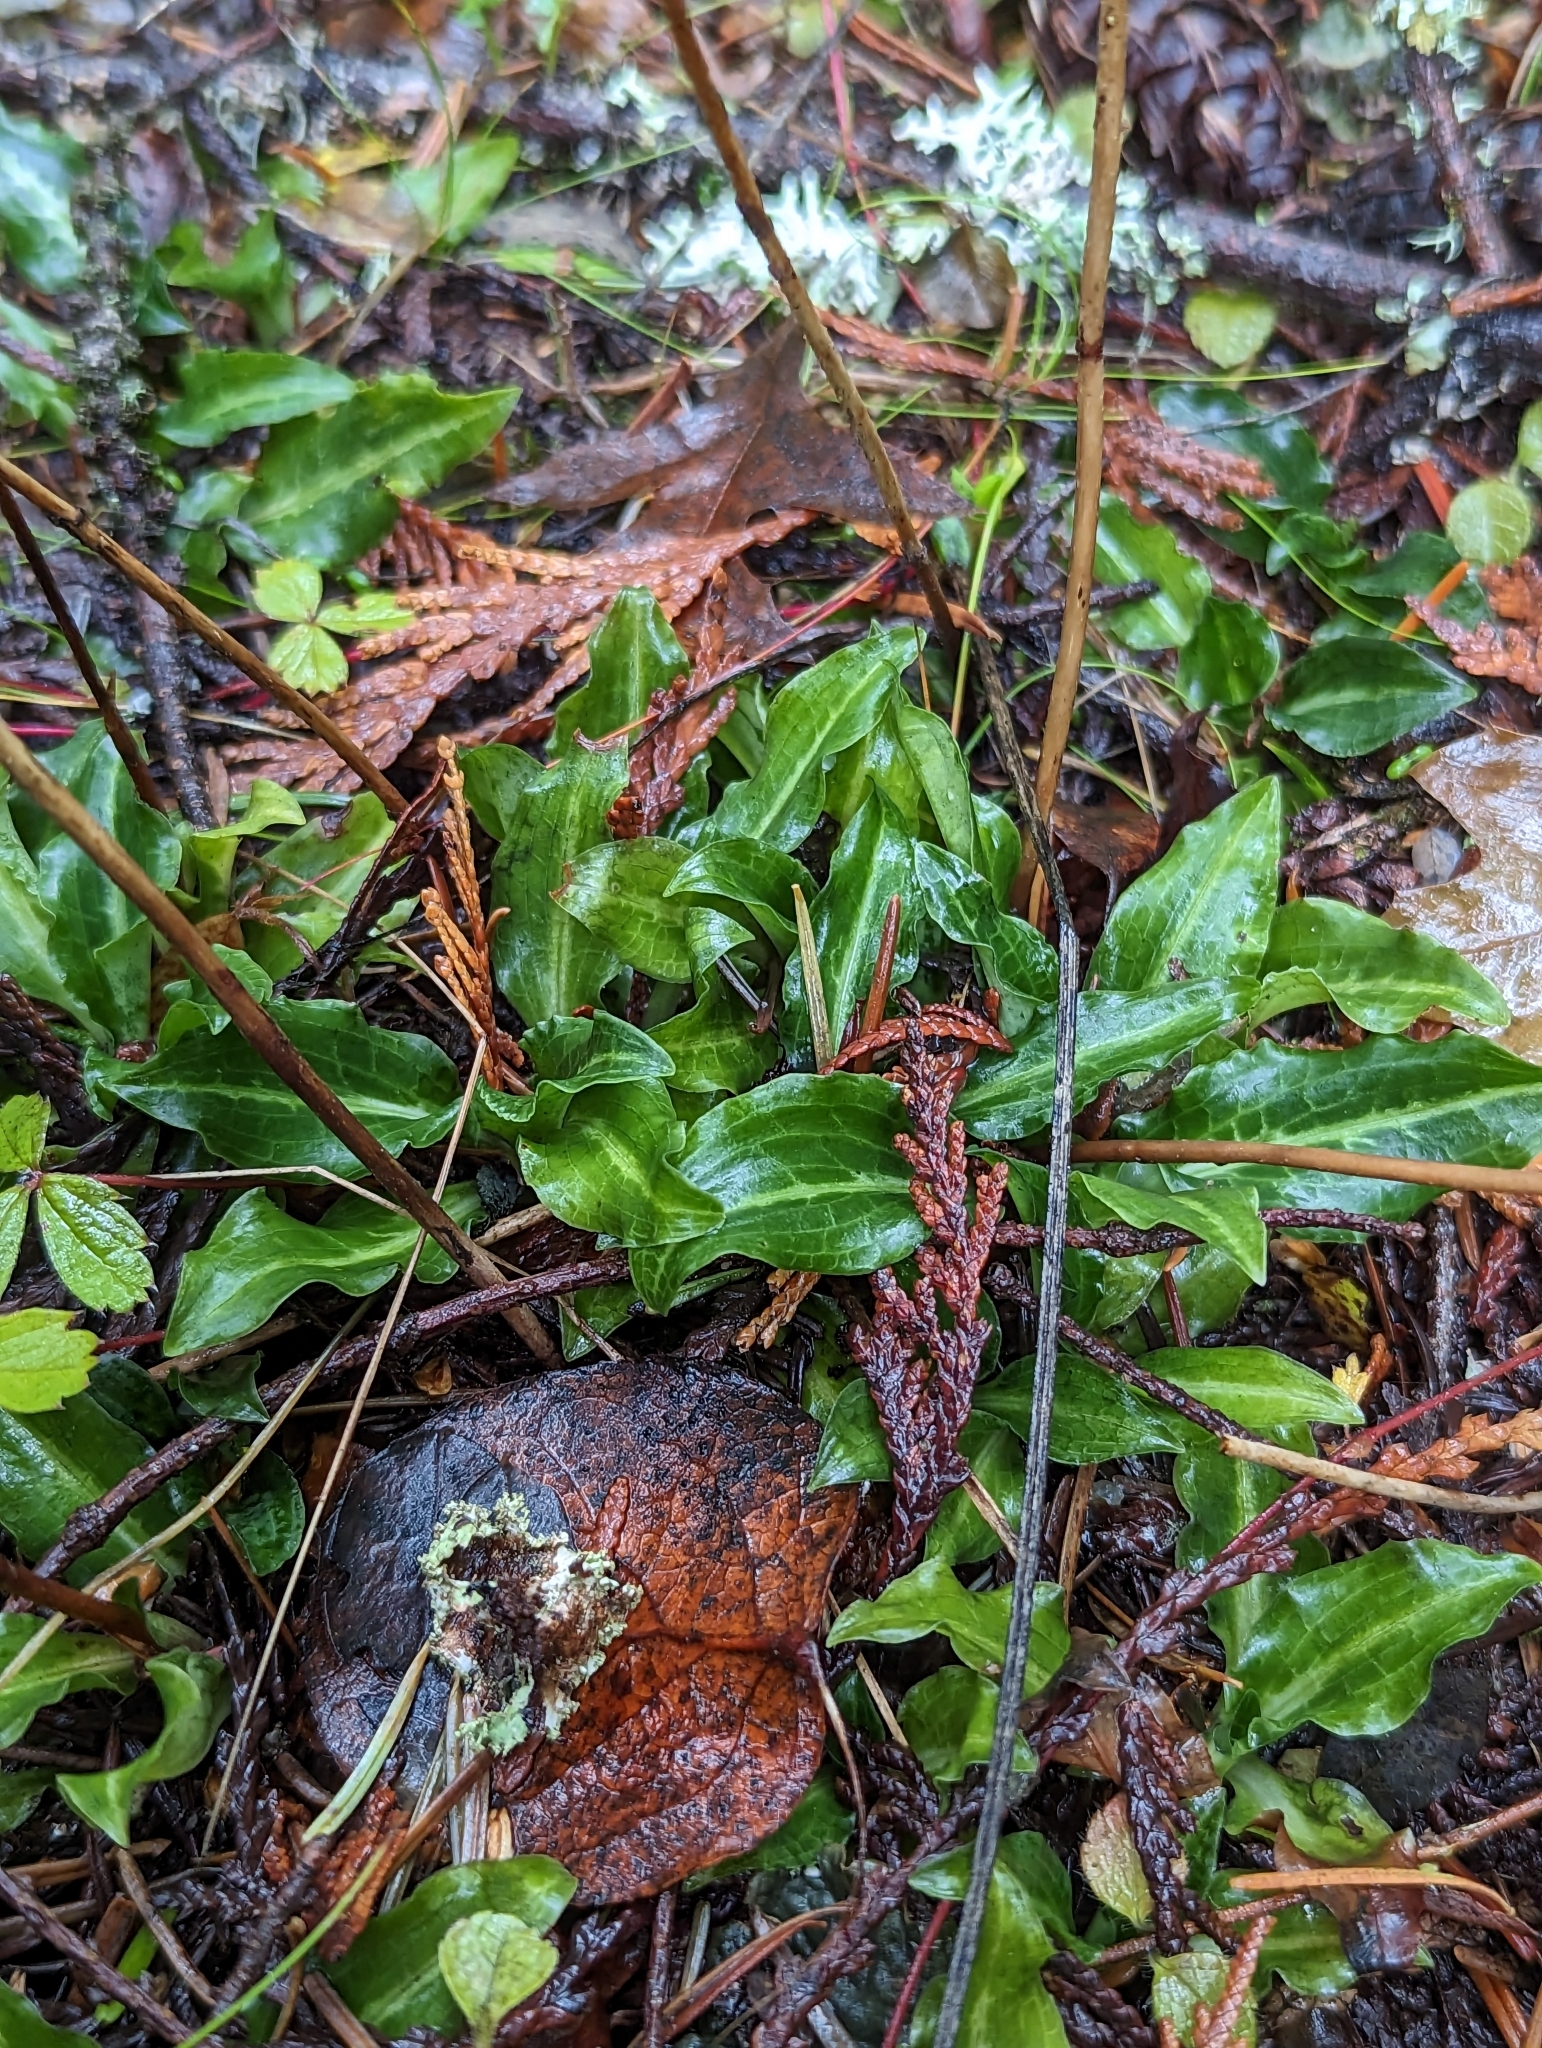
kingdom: Plantae
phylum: Tracheophyta
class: Liliopsida
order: Asparagales
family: Orchidaceae
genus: Goodyera
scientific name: Goodyera oblongifolia
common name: Giant rattlesnake-plantain
